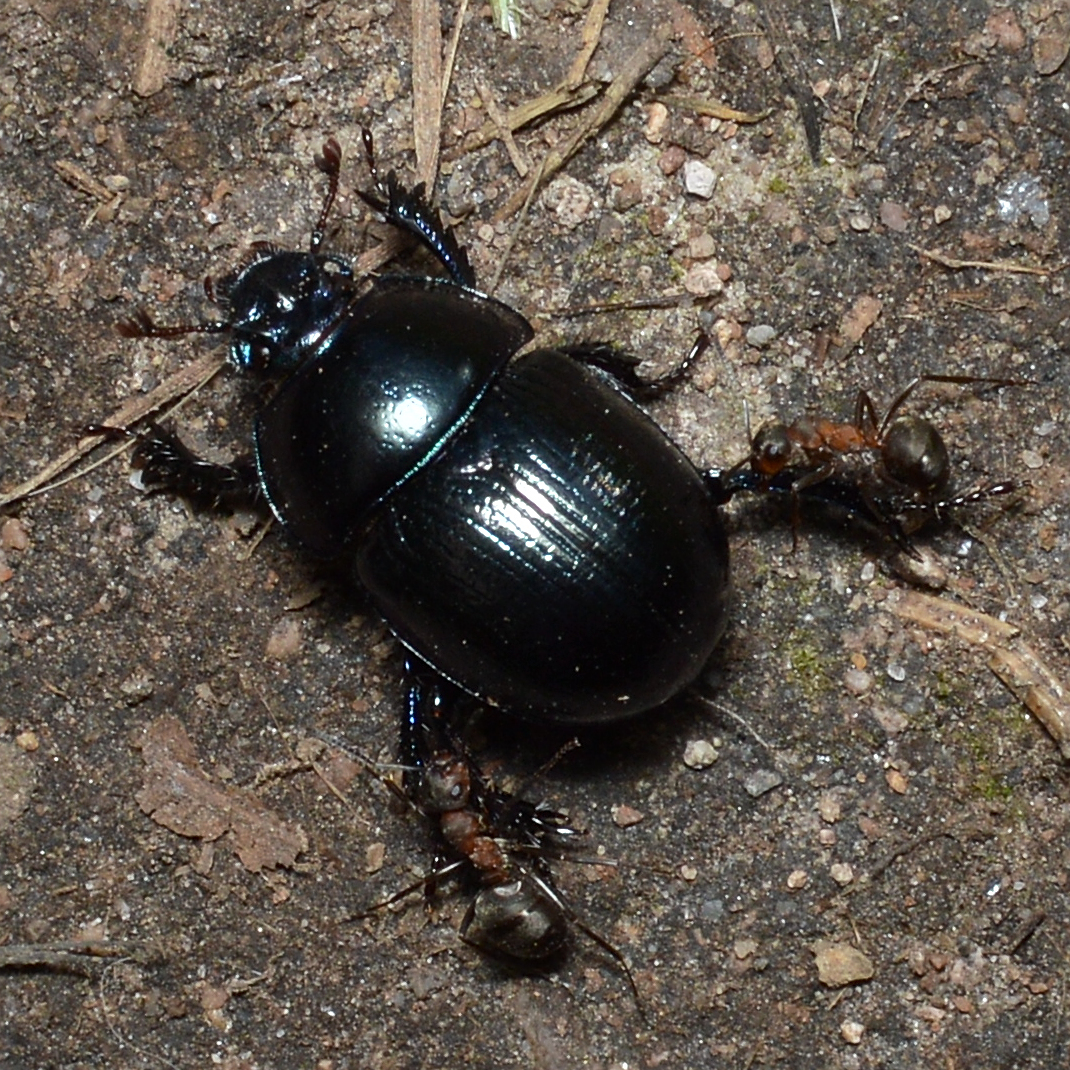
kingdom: Animalia
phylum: Arthropoda
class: Insecta
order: Coleoptera
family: Geotrupidae
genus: Anoplotrupes
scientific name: Anoplotrupes stercorosus
